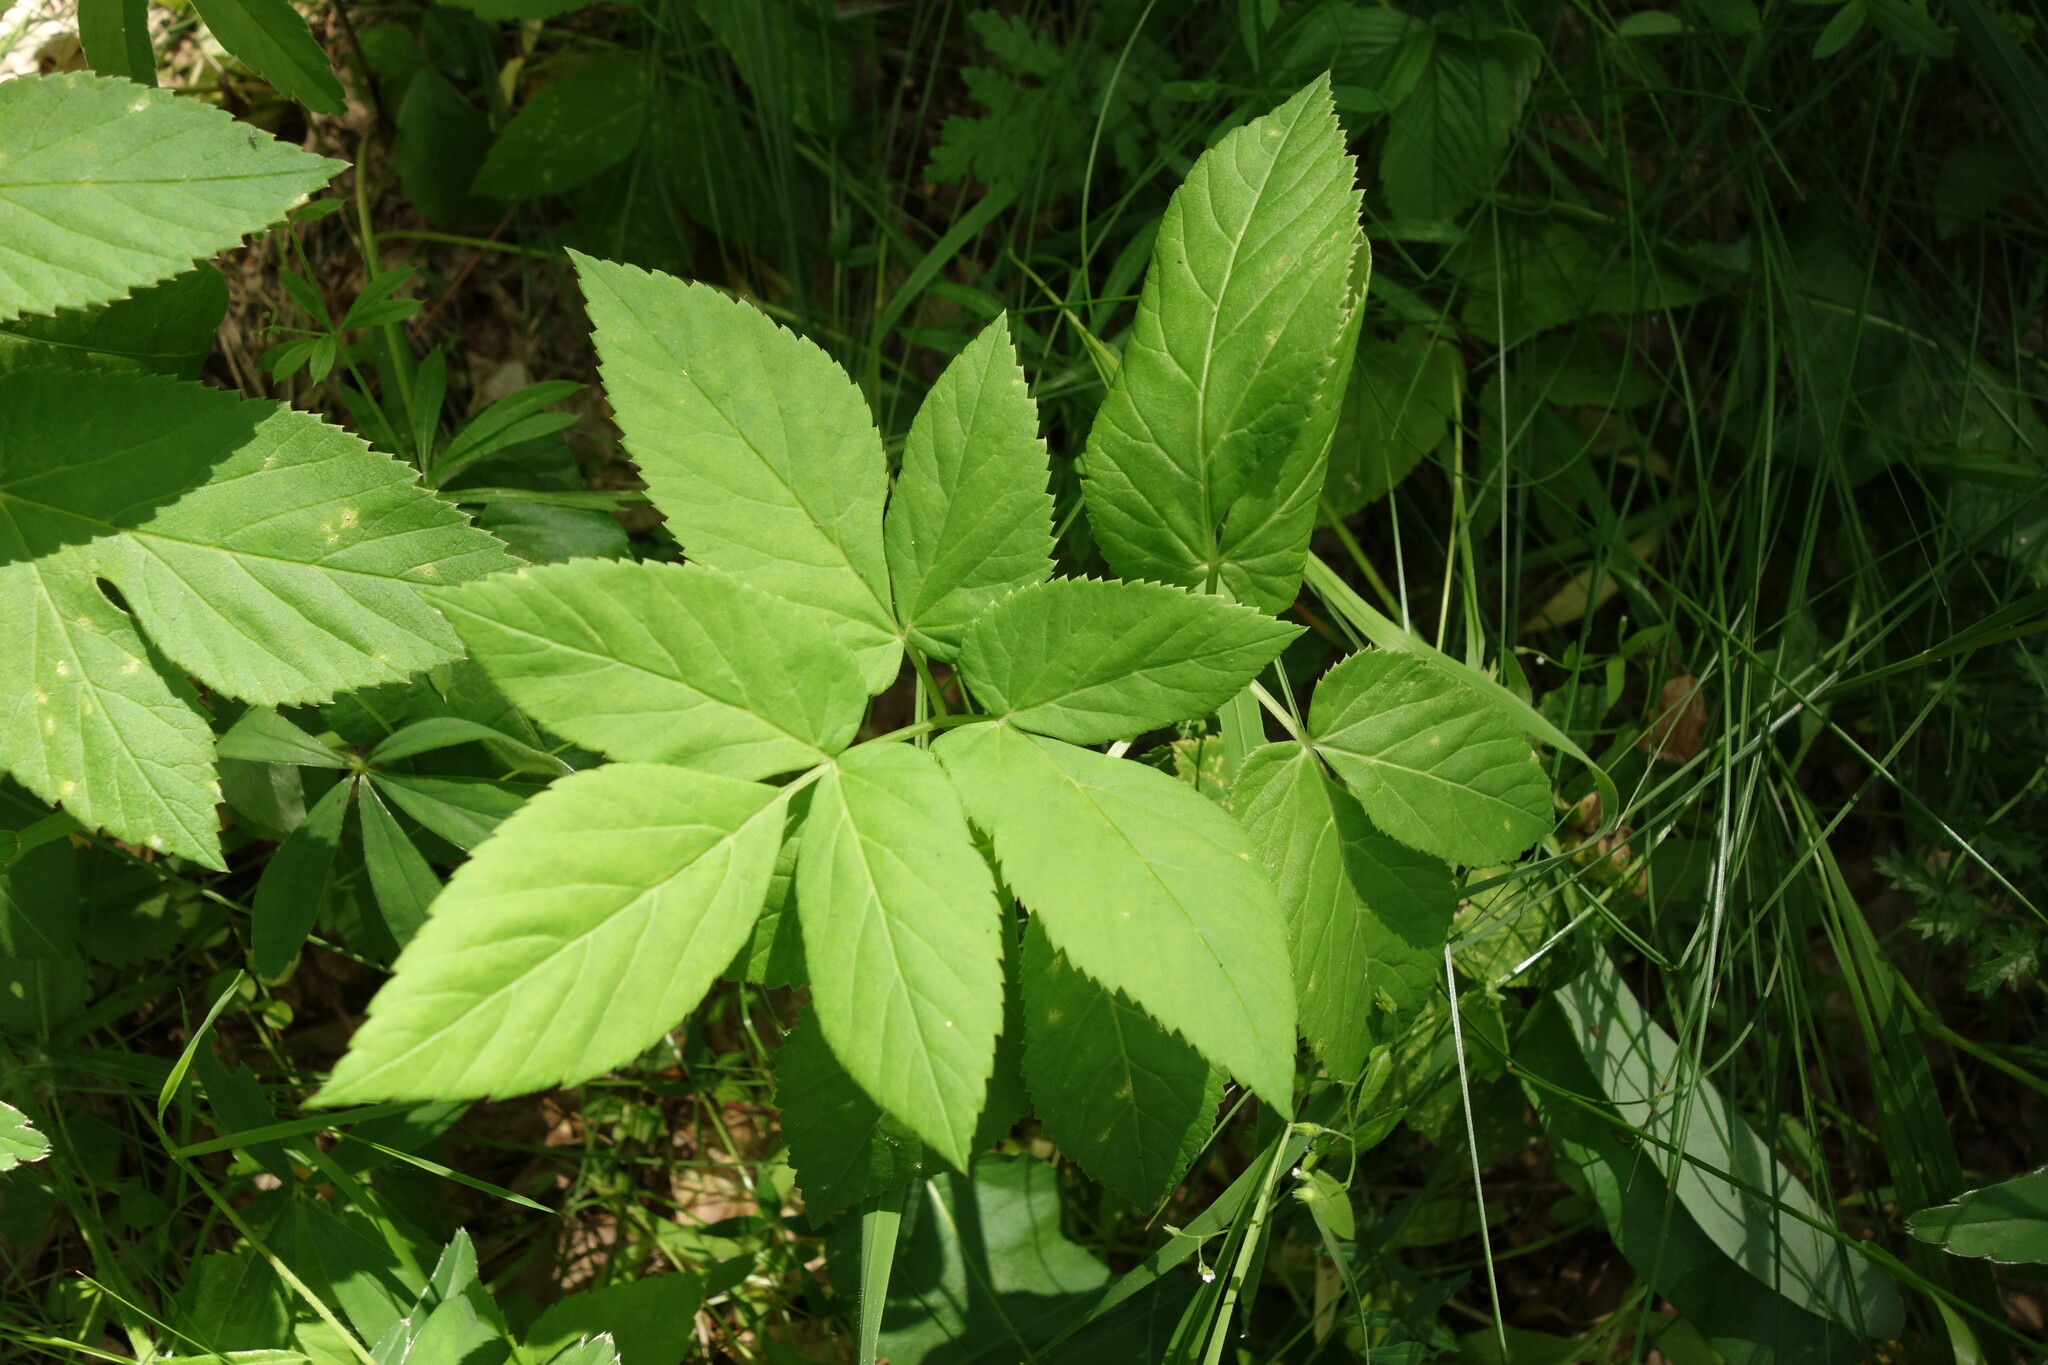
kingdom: Plantae
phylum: Tracheophyta
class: Magnoliopsida
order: Apiales
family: Apiaceae
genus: Aegopodium
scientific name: Aegopodium podagraria
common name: Ground-elder
